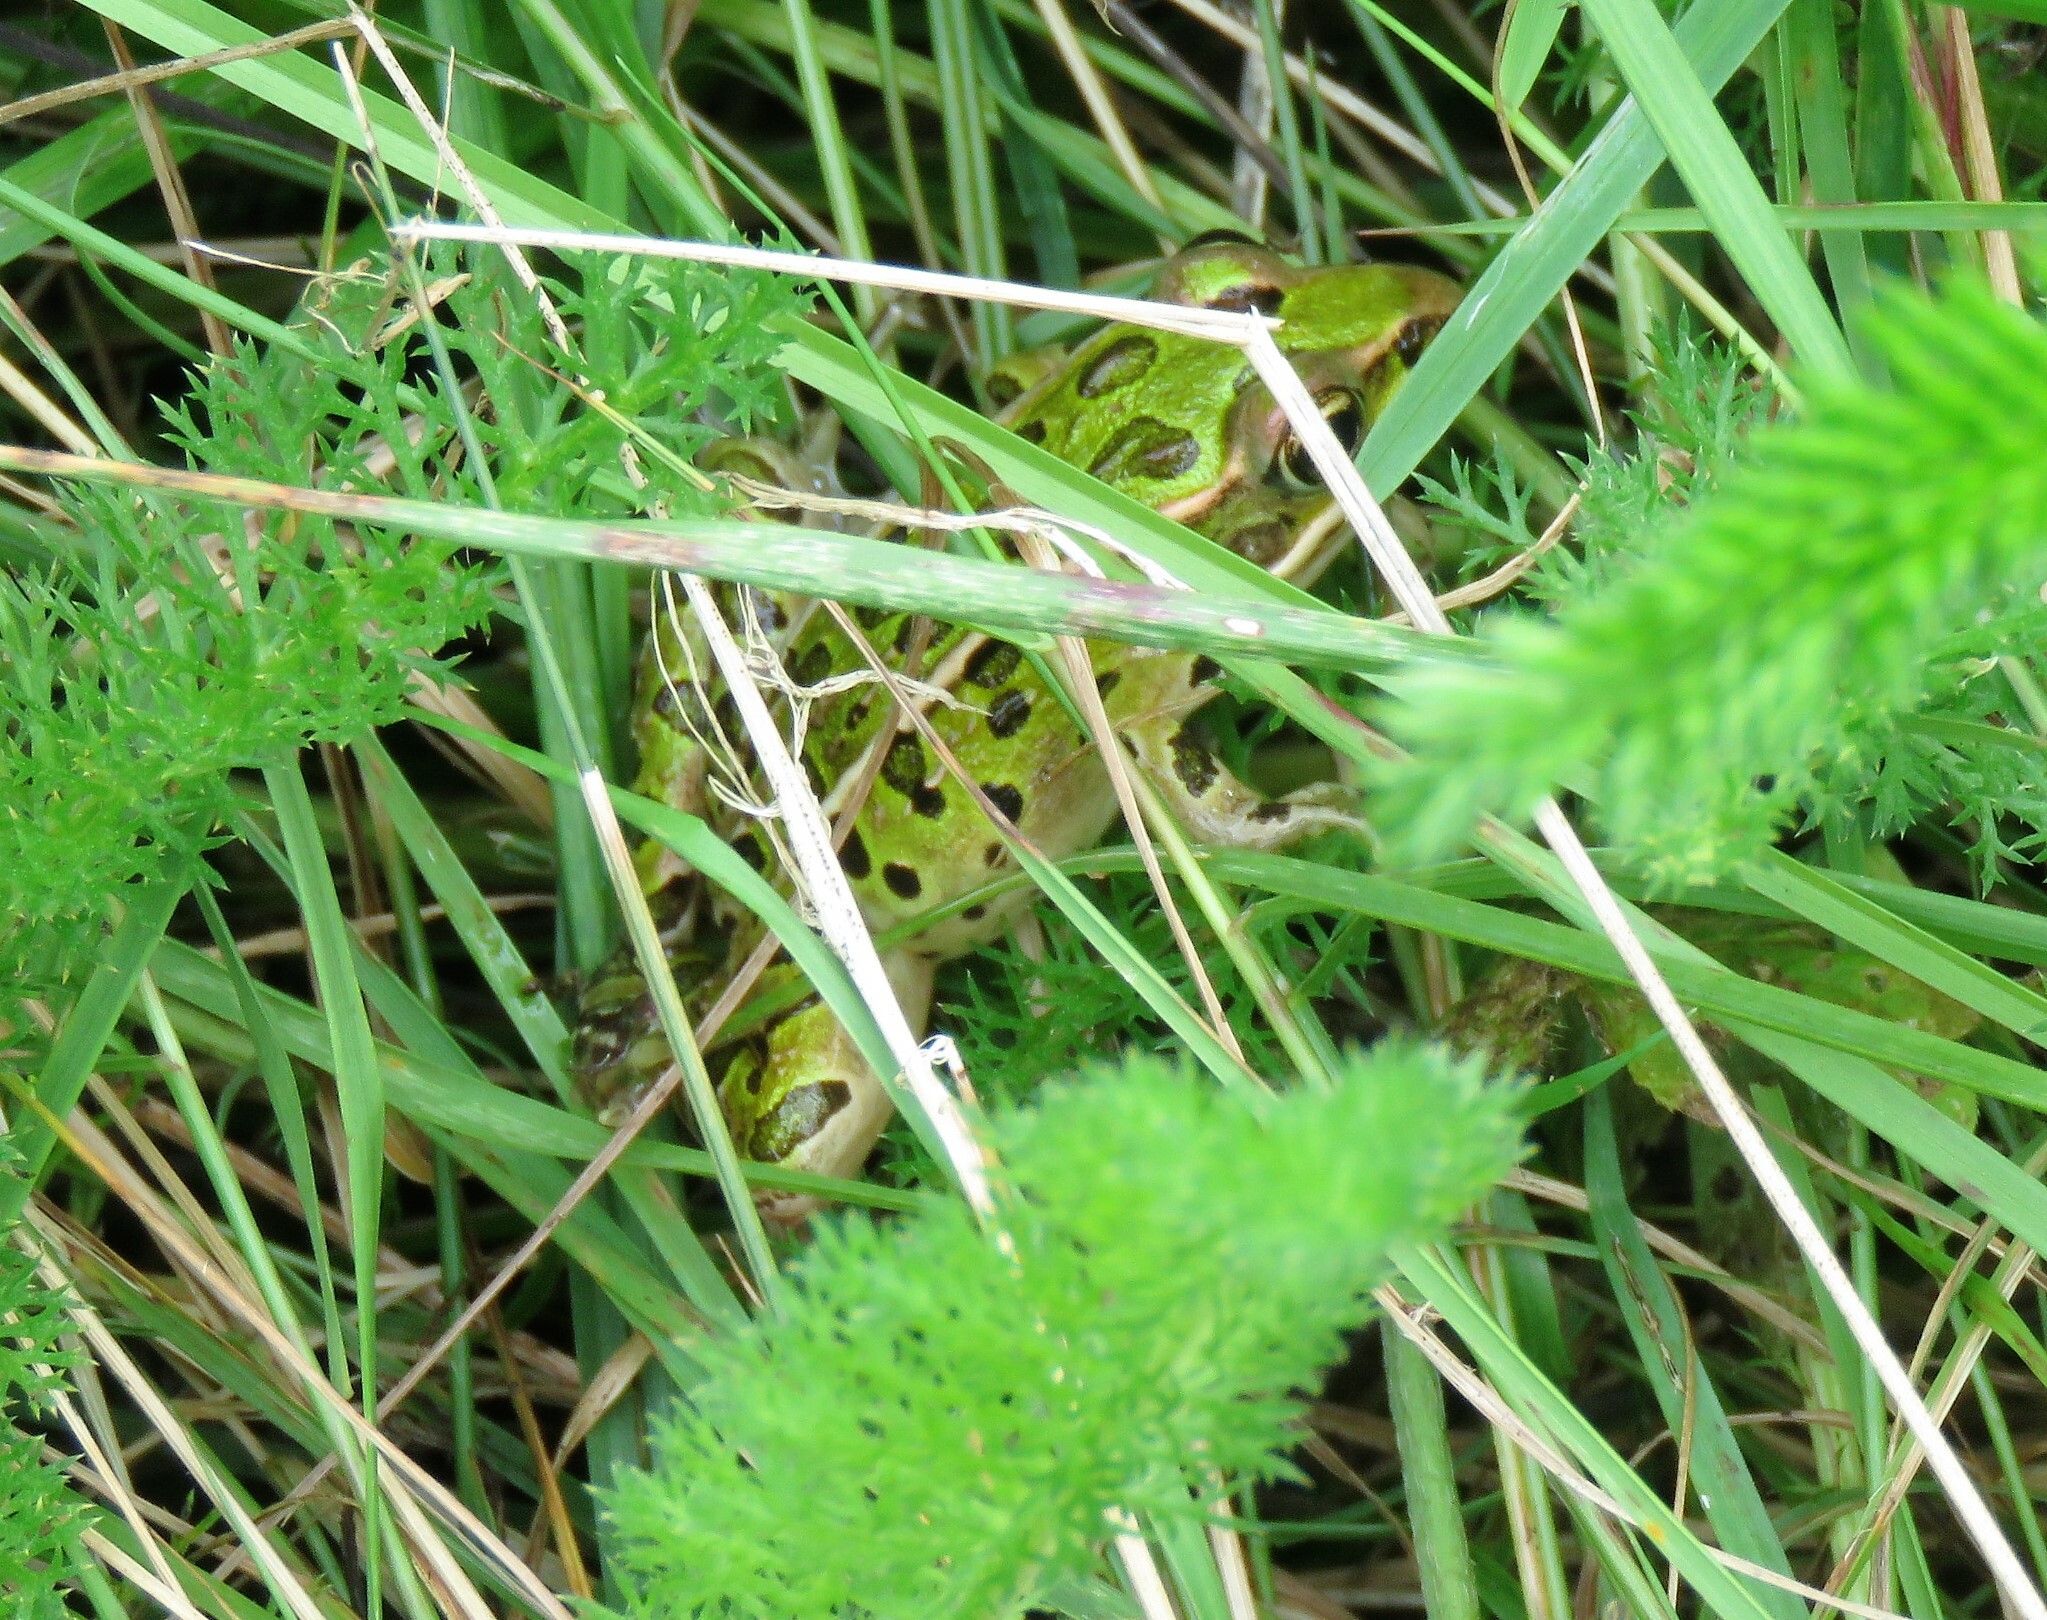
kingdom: Animalia
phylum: Chordata
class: Amphibia
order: Anura
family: Ranidae
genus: Lithobates
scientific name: Lithobates pipiens
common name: Northern leopard frog
